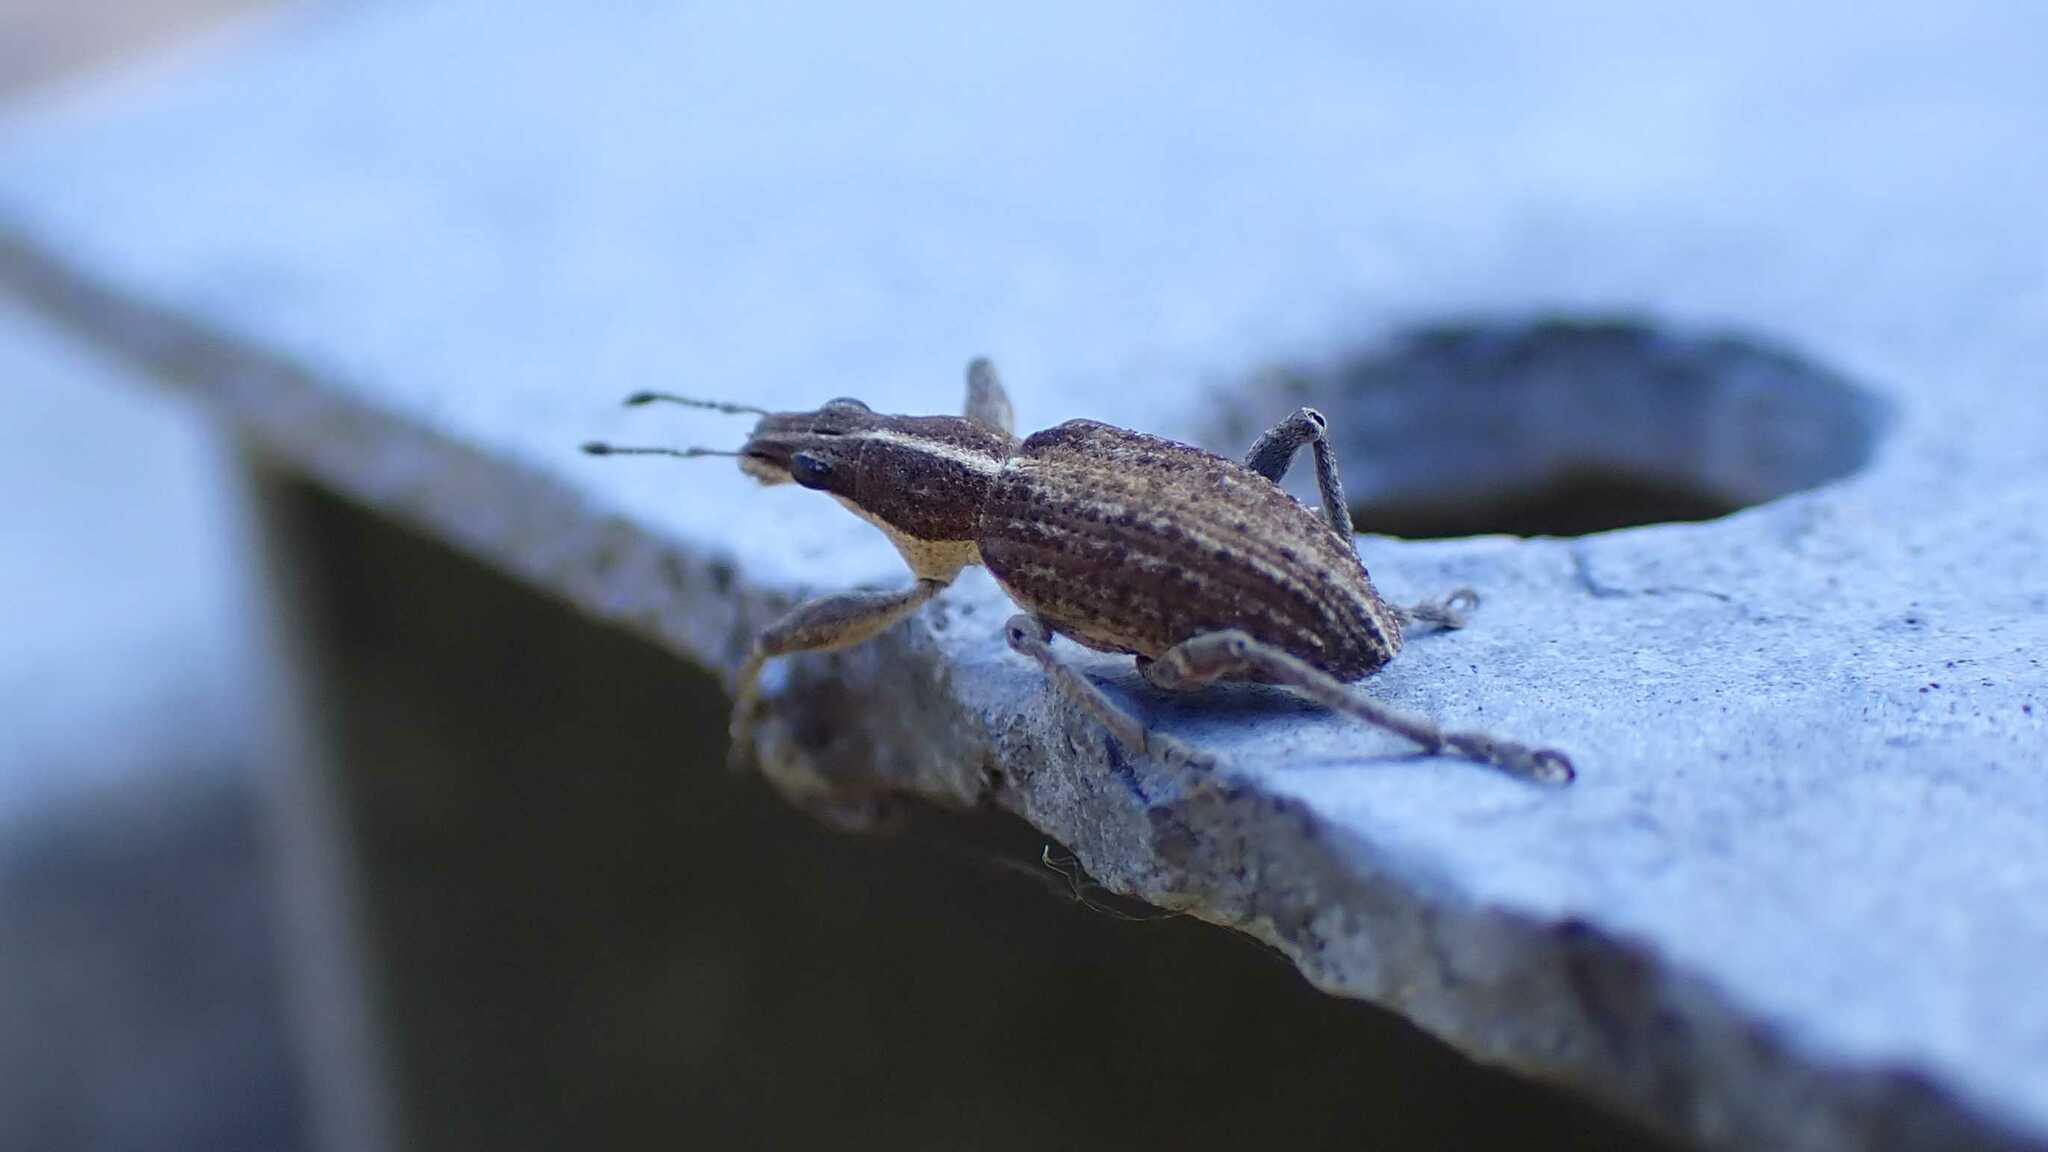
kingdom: Animalia
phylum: Arthropoda
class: Insecta
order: Coleoptera
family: Curculionidae
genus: Charagmus
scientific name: Charagmus gressorius
